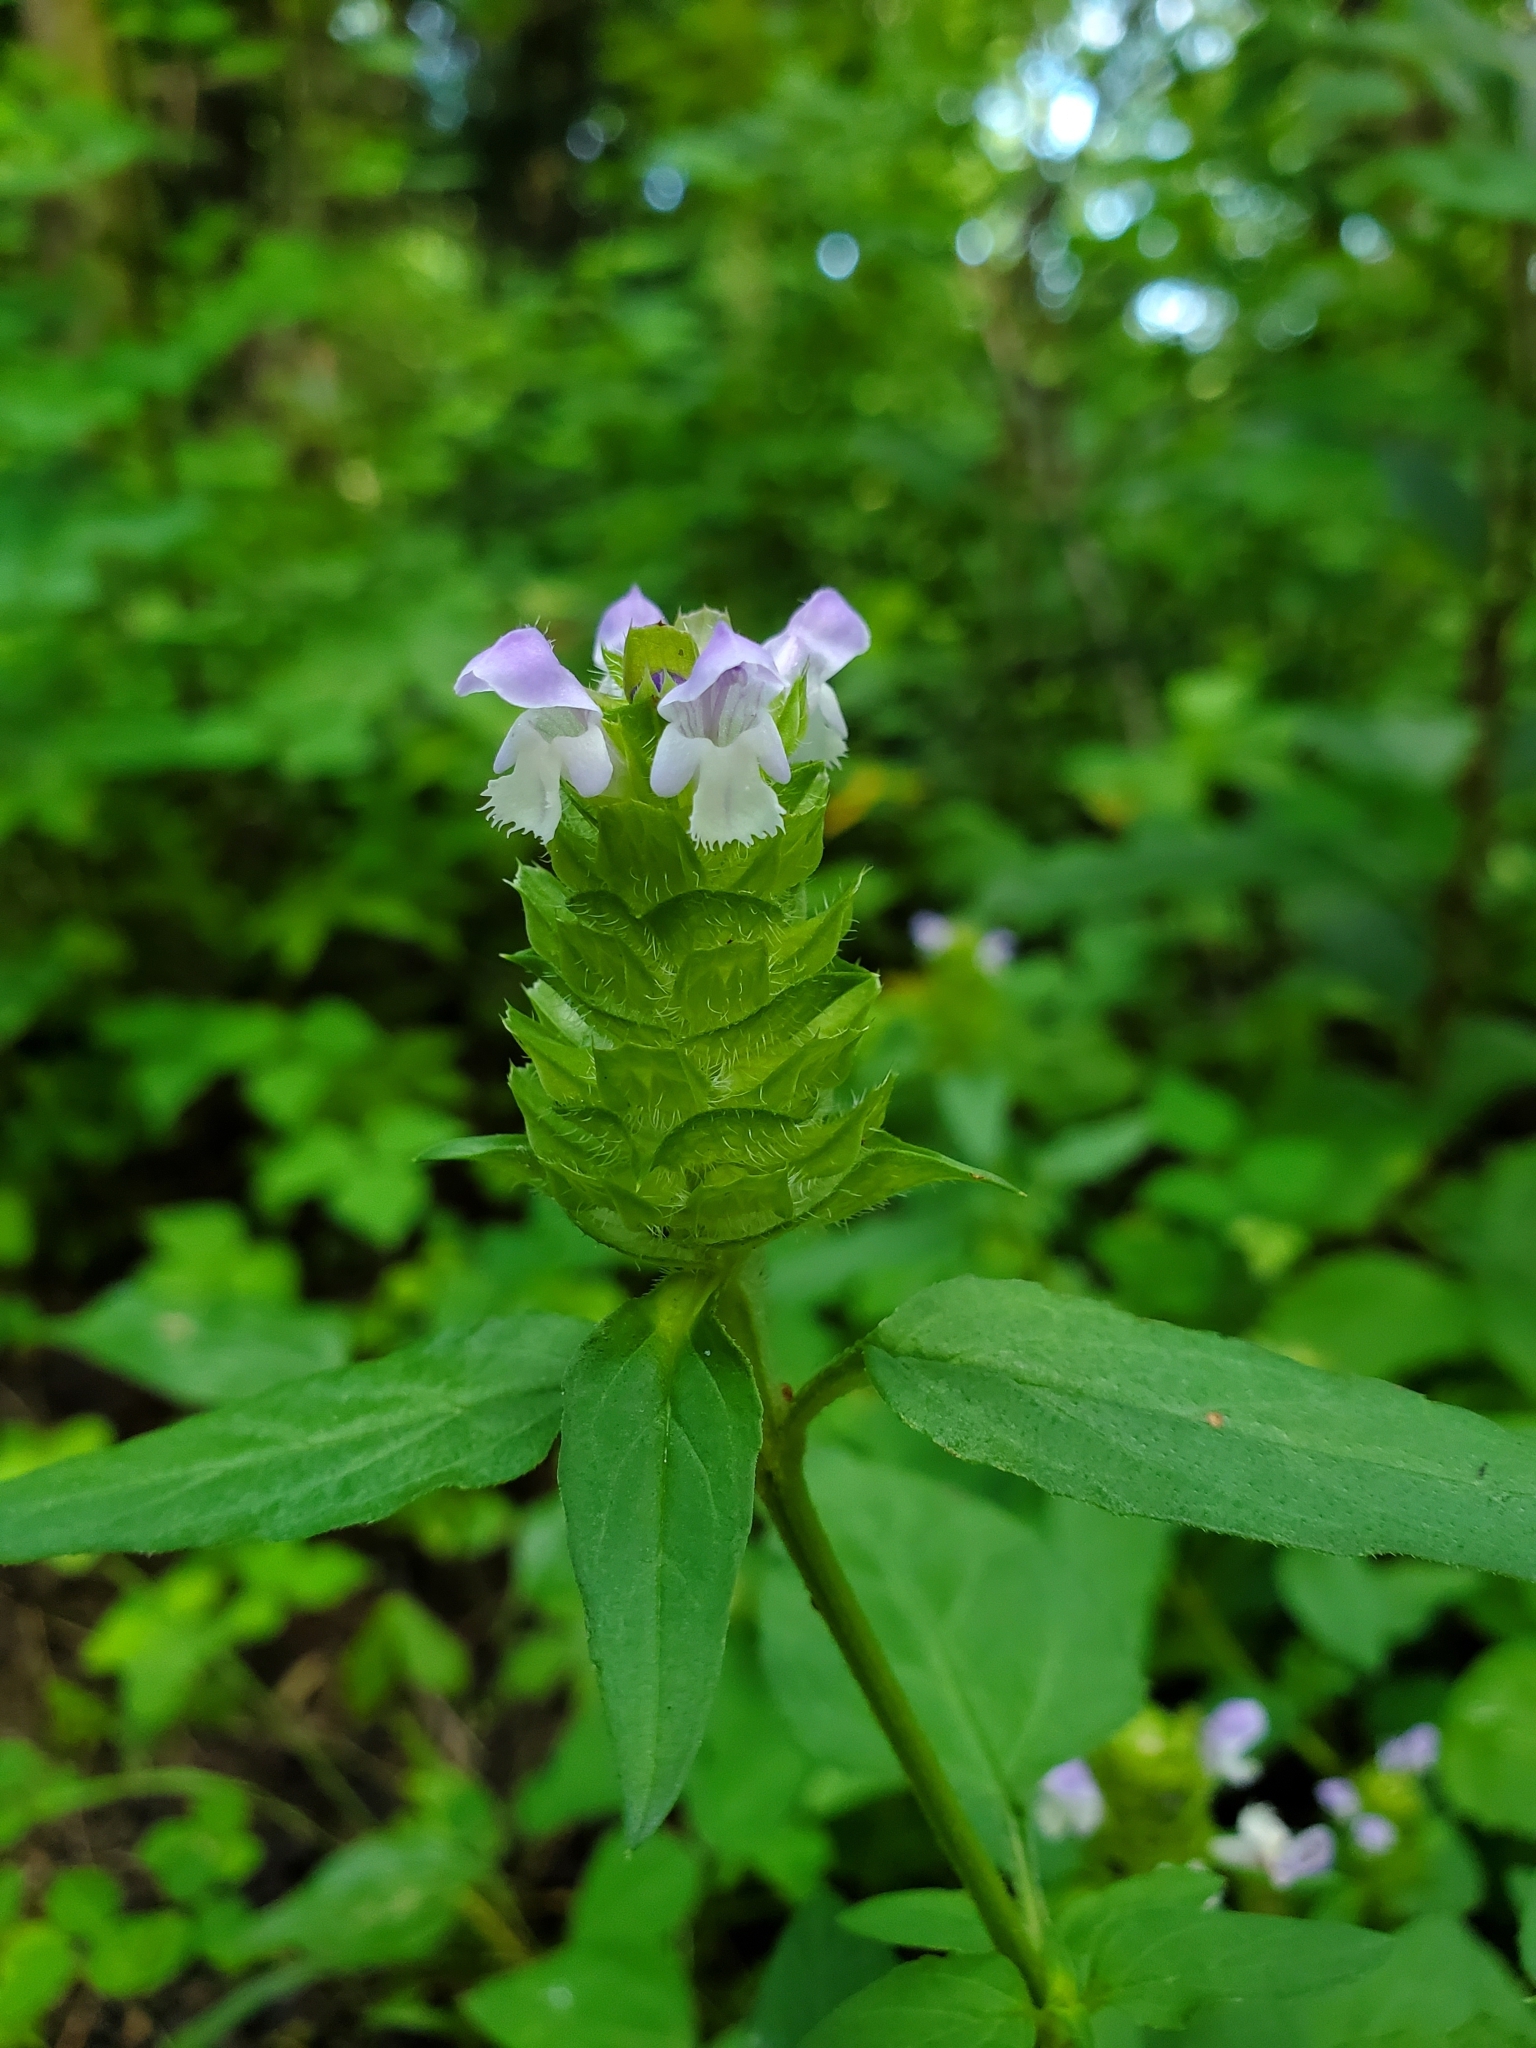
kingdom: Plantae
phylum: Tracheophyta
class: Magnoliopsida
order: Lamiales
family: Lamiaceae
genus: Prunella
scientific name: Prunella vulgaris
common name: Heal-all
